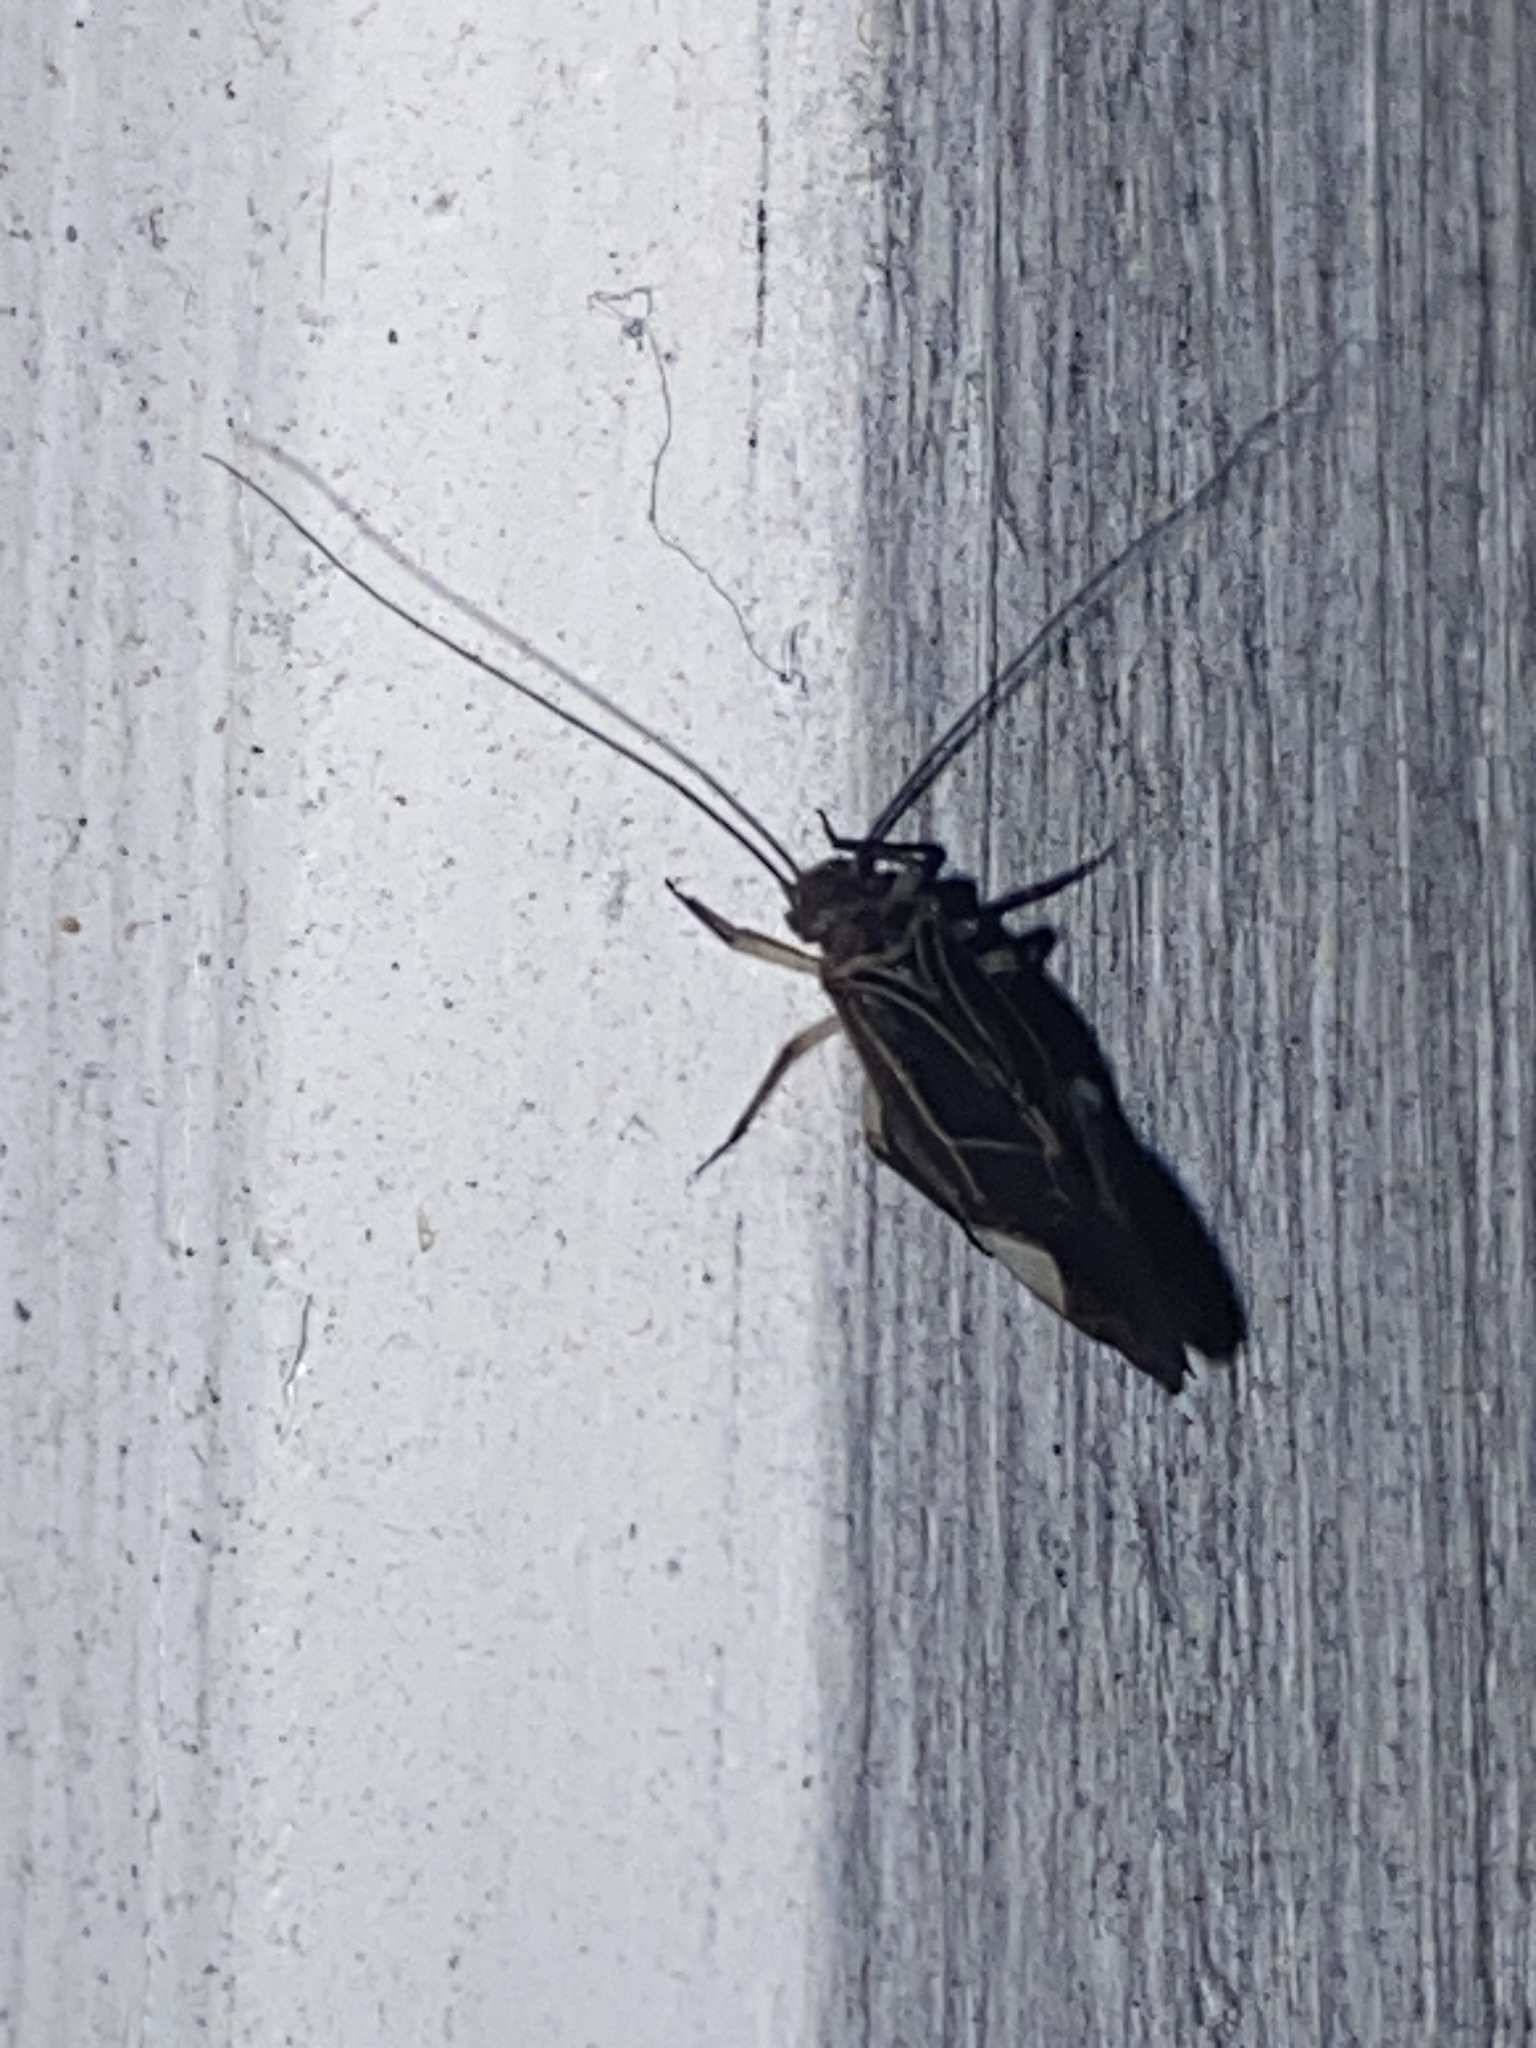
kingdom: Animalia
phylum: Arthropoda
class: Insecta
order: Psocodea
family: Psocidae
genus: Cerastipsocus
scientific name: Cerastipsocus venosus
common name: Tree cattle
